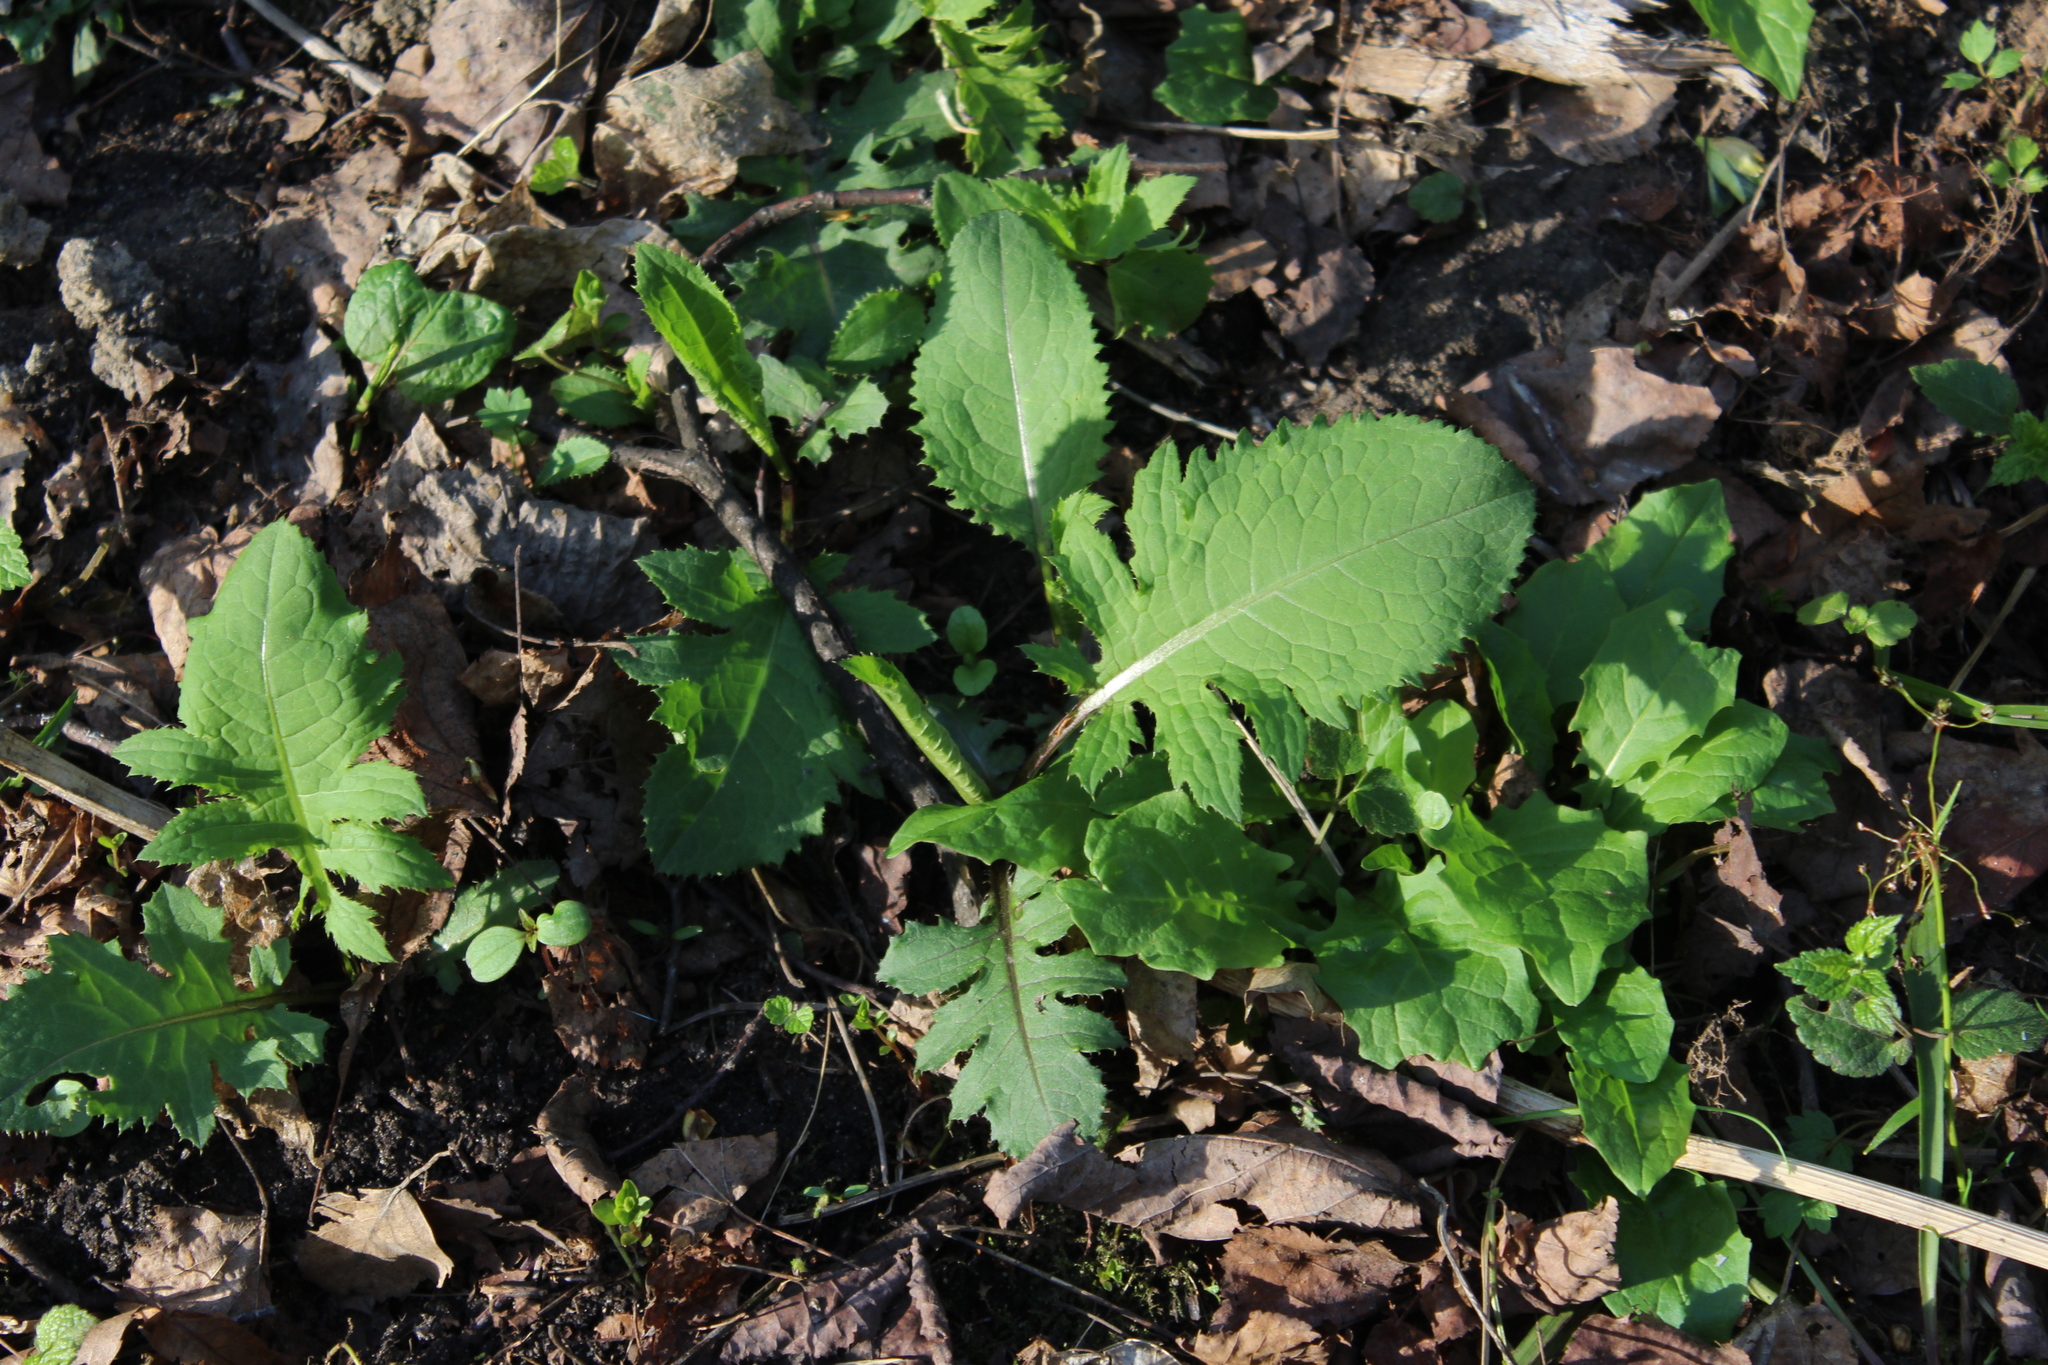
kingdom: Plantae
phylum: Tracheophyta
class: Magnoliopsida
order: Asterales
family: Asteraceae
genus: Cirsium
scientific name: Cirsium oleraceum
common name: Cabbage thistle
